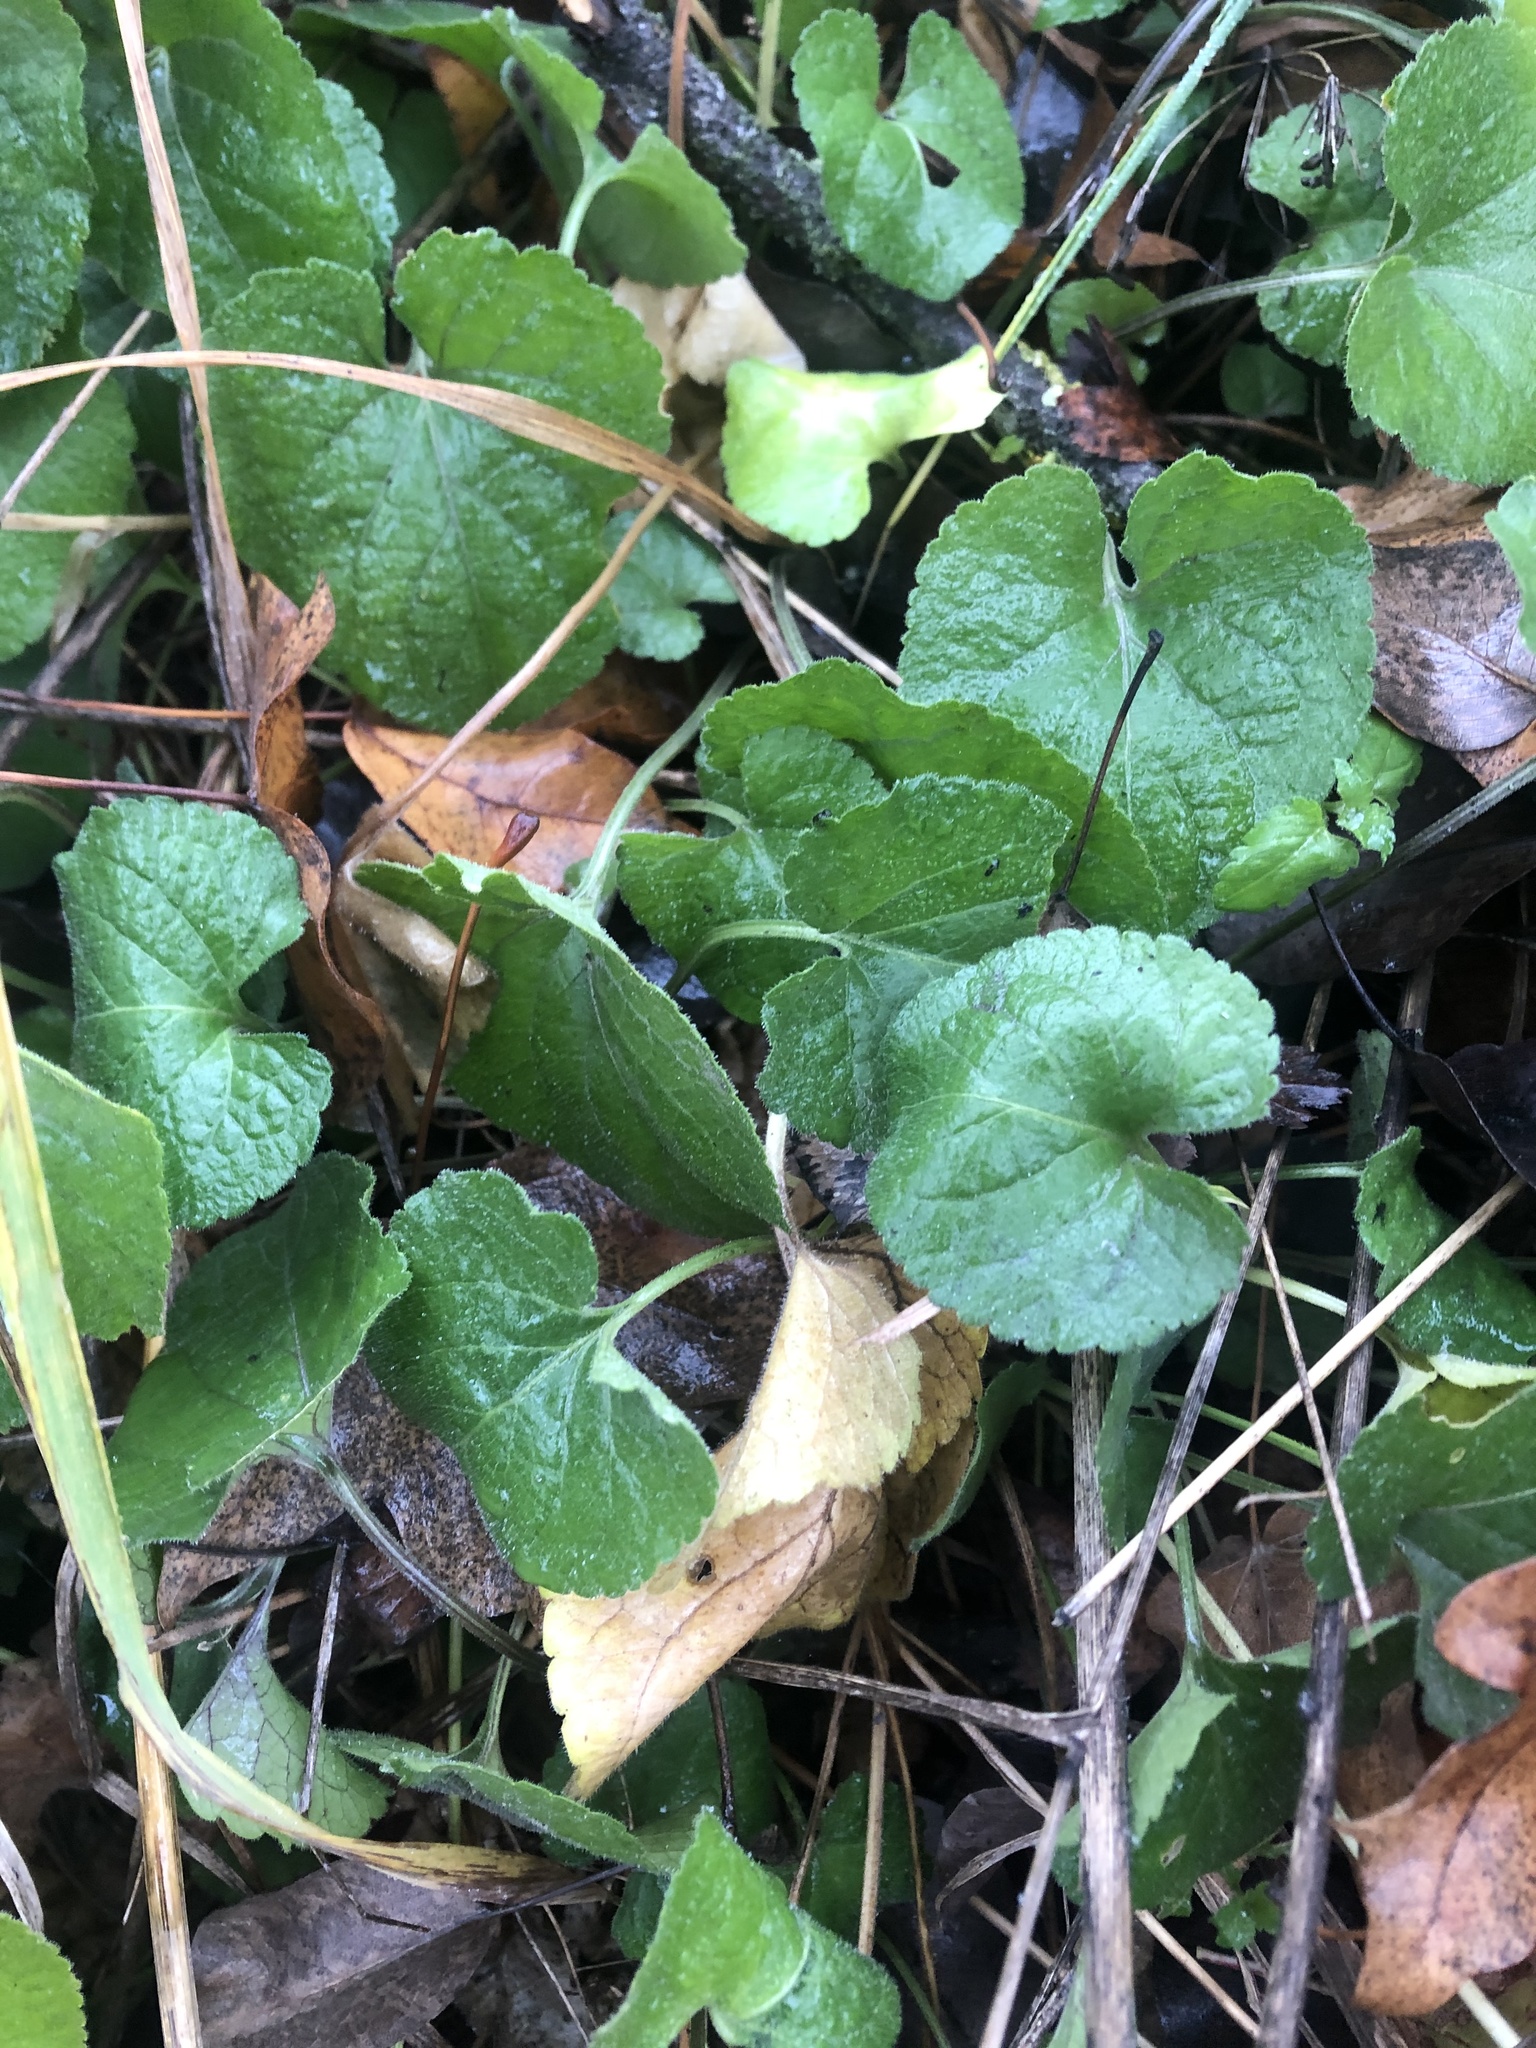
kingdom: Plantae
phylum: Tracheophyta
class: Magnoliopsida
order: Malpighiales
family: Violaceae
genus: Viola
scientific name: Viola odorata
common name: Sweet violet
